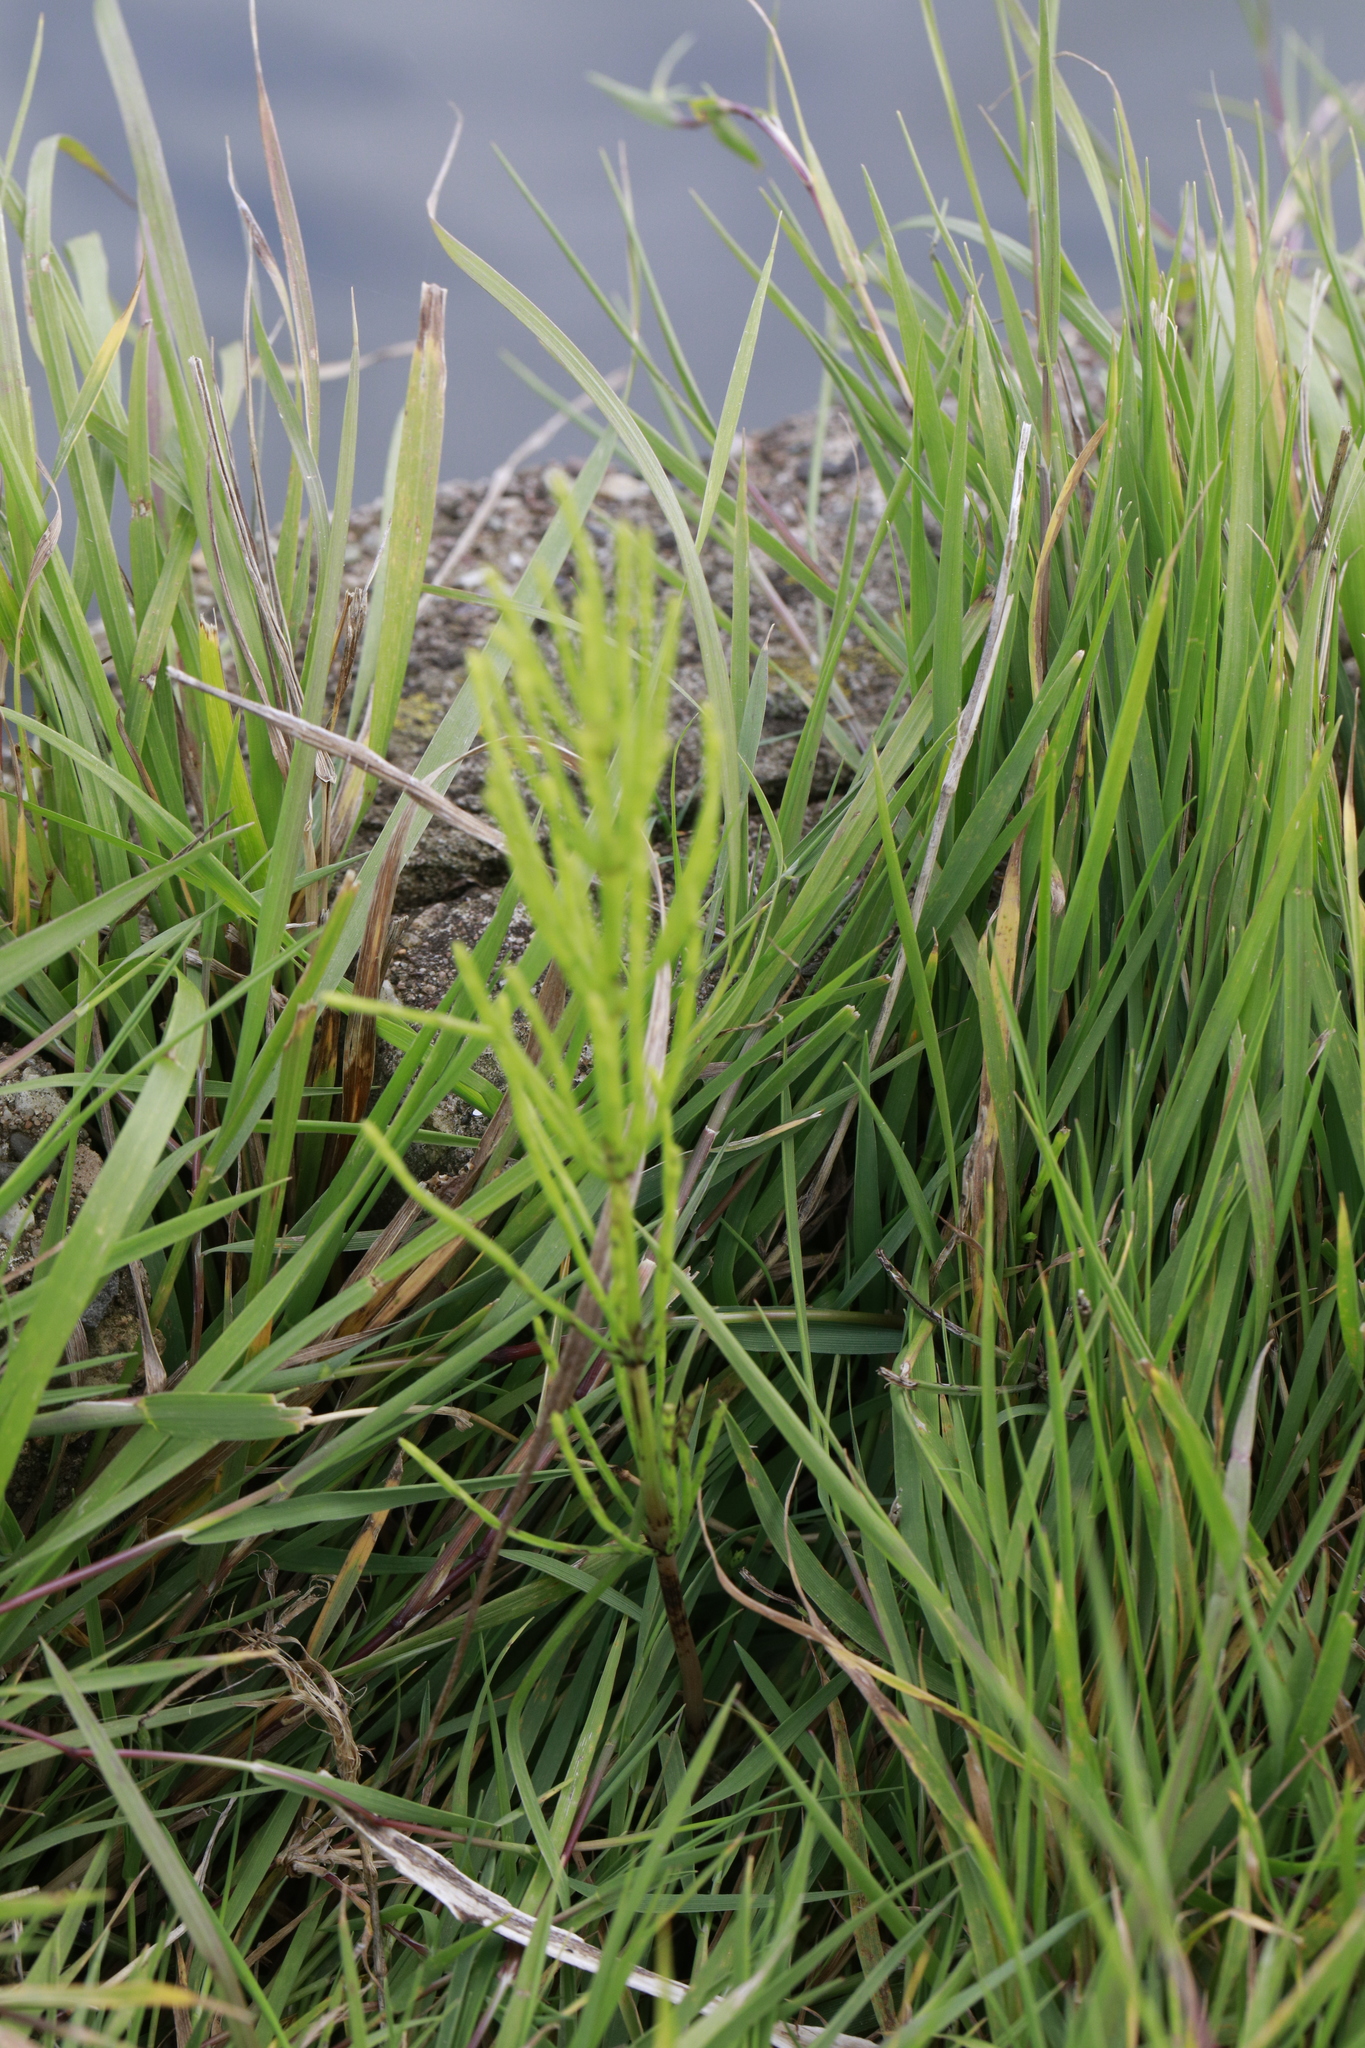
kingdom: Plantae
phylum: Tracheophyta
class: Polypodiopsida
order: Equisetales
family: Equisetaceae
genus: Equisetum
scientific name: Equisetum arvense
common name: Field horsetail
